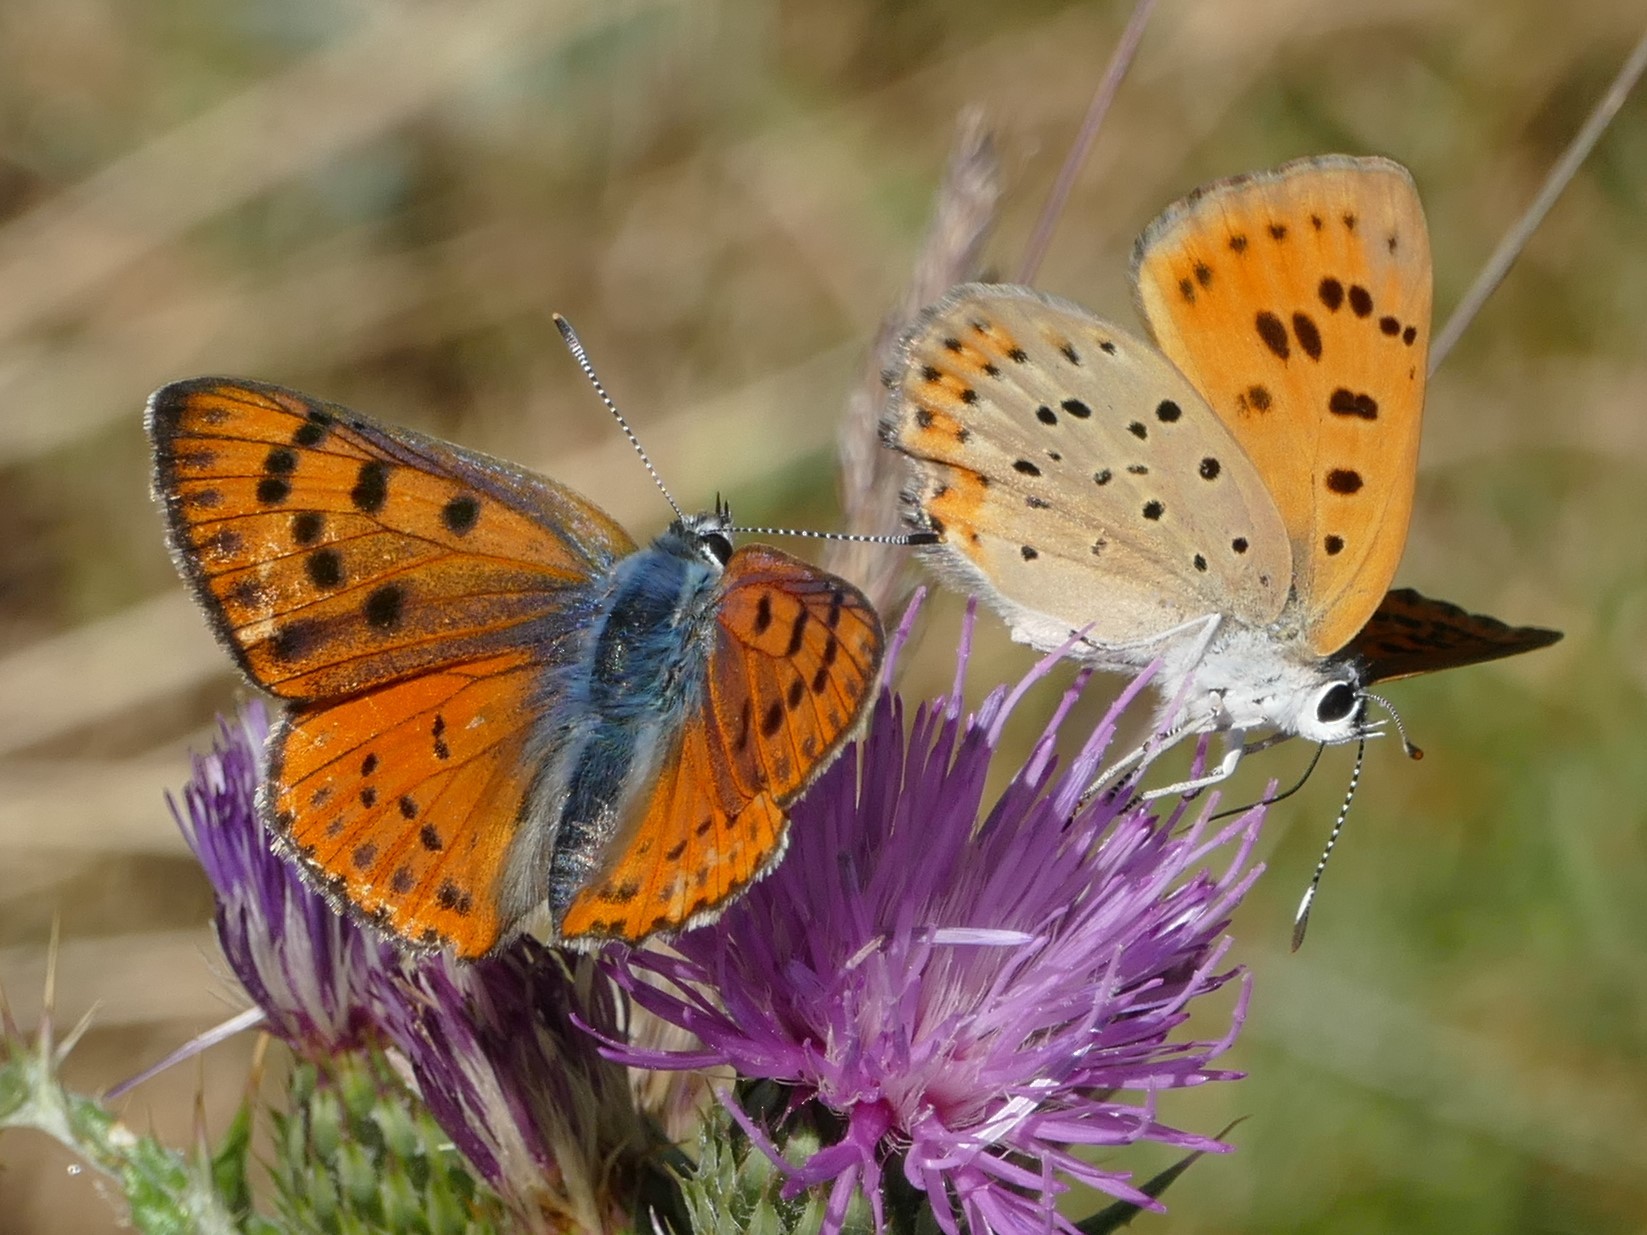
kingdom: Animalia
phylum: Arthropoda
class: Insecta
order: Lepidoptera
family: Lycaenidae
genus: Lycaena
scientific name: Lycaena alciphron
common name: Purple-shot copper
